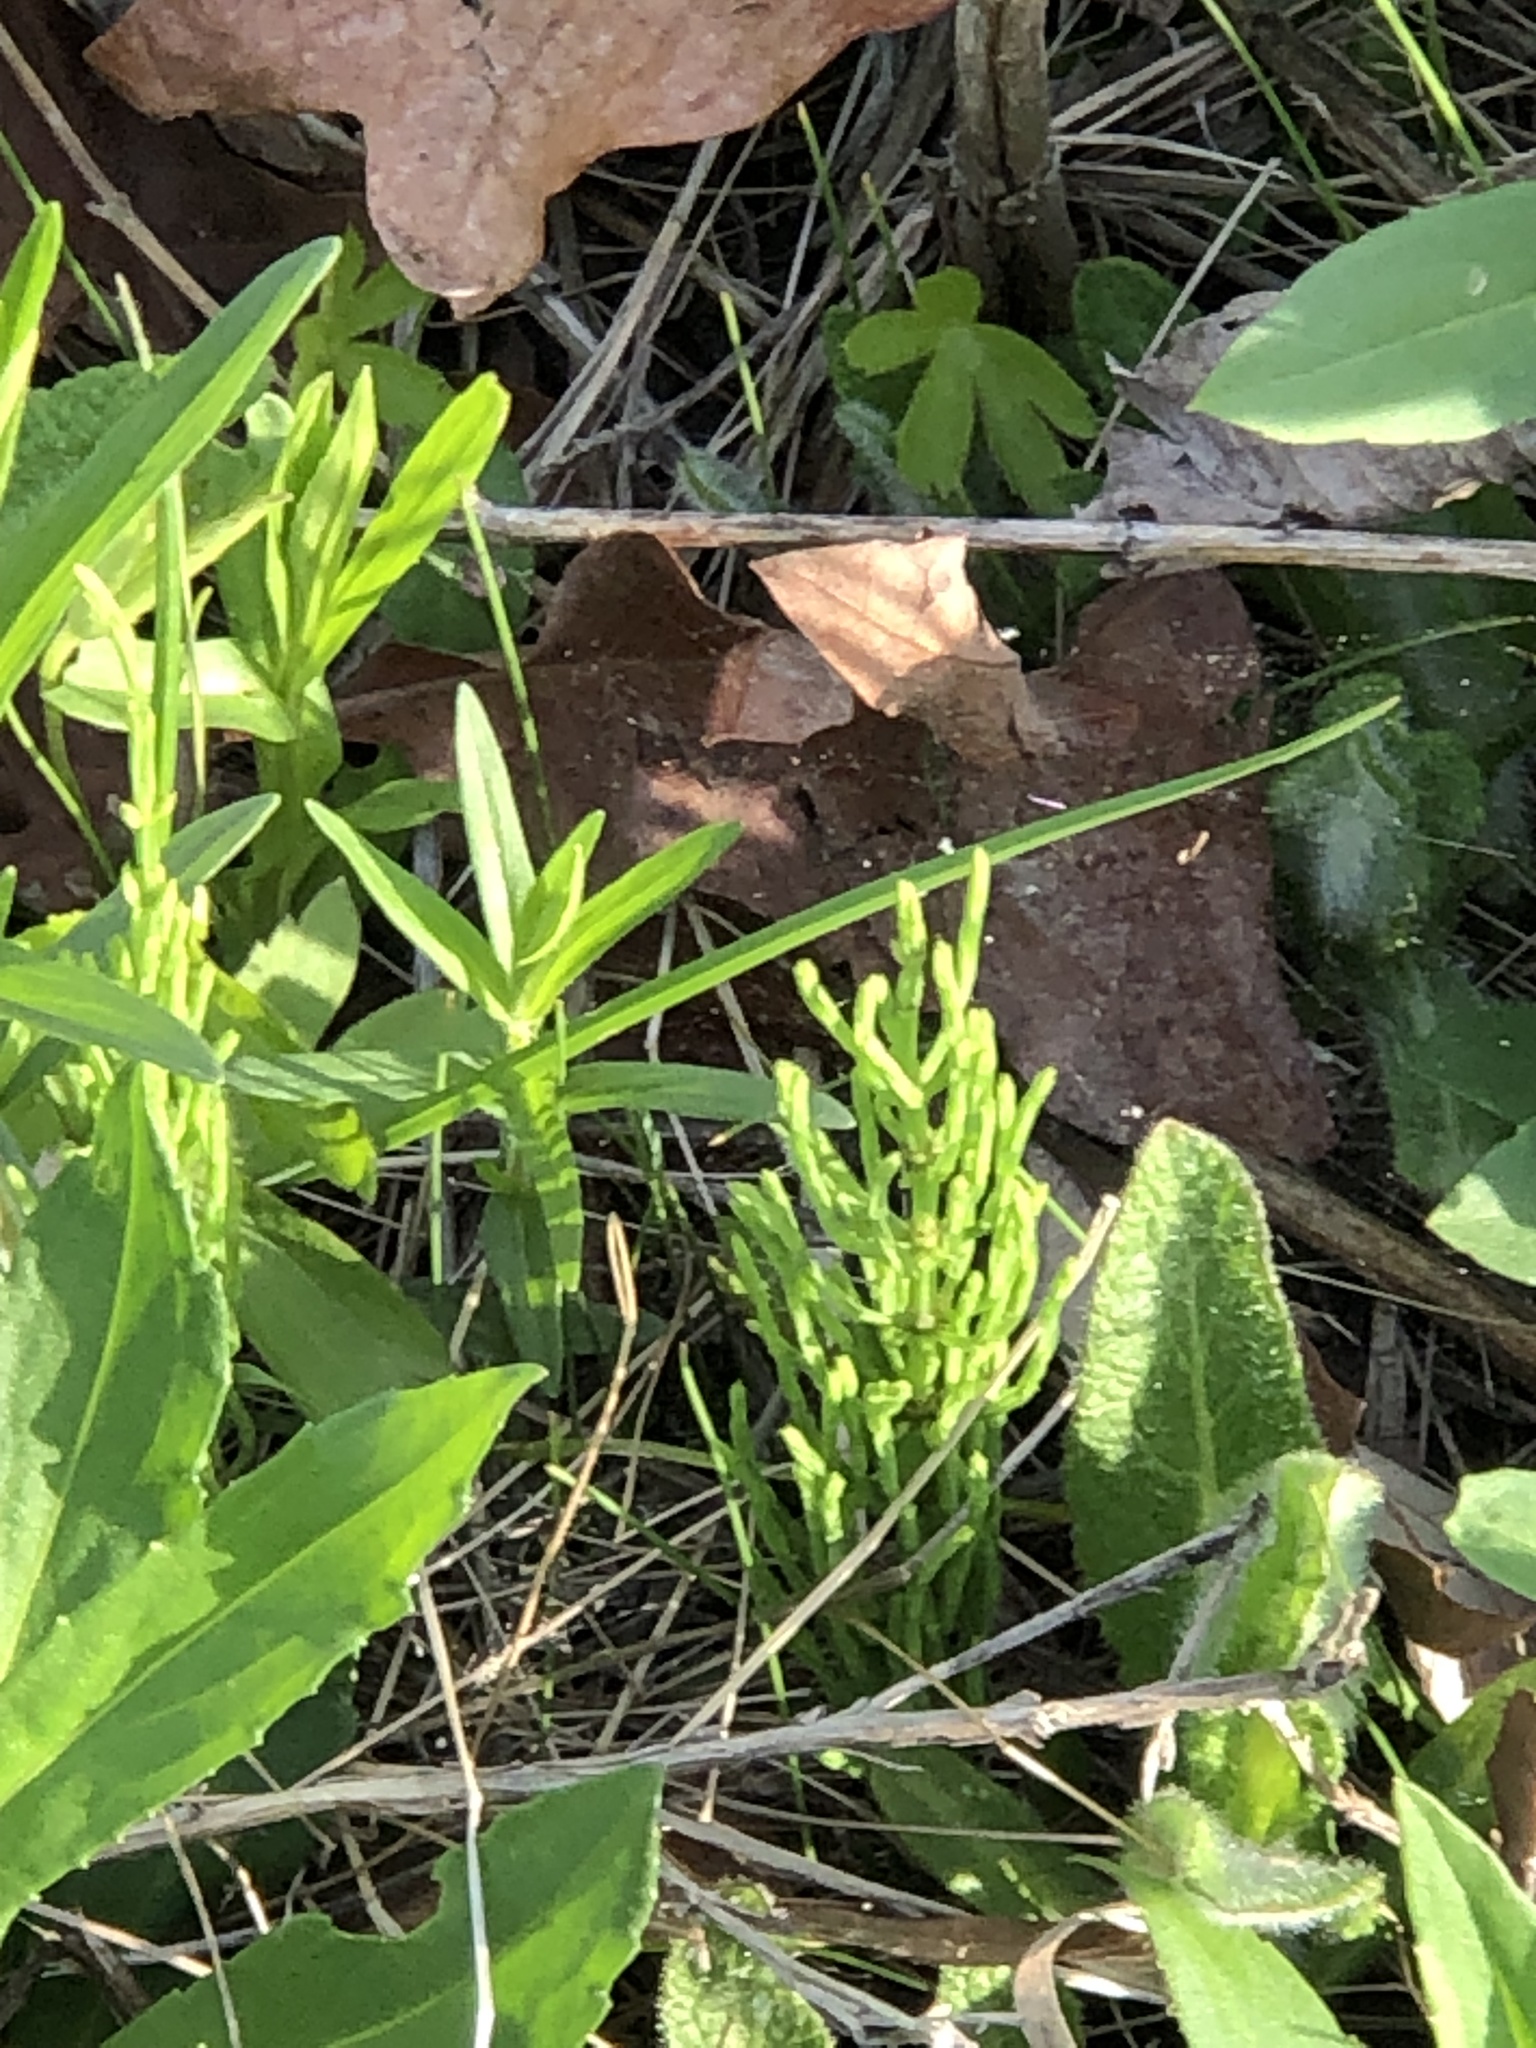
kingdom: Plantae
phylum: Tracheophyta
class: Polypodiopsida
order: Equisetales
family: Equisetaceae
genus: Equisetum
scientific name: Equisetum arvense
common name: Field horsetail
